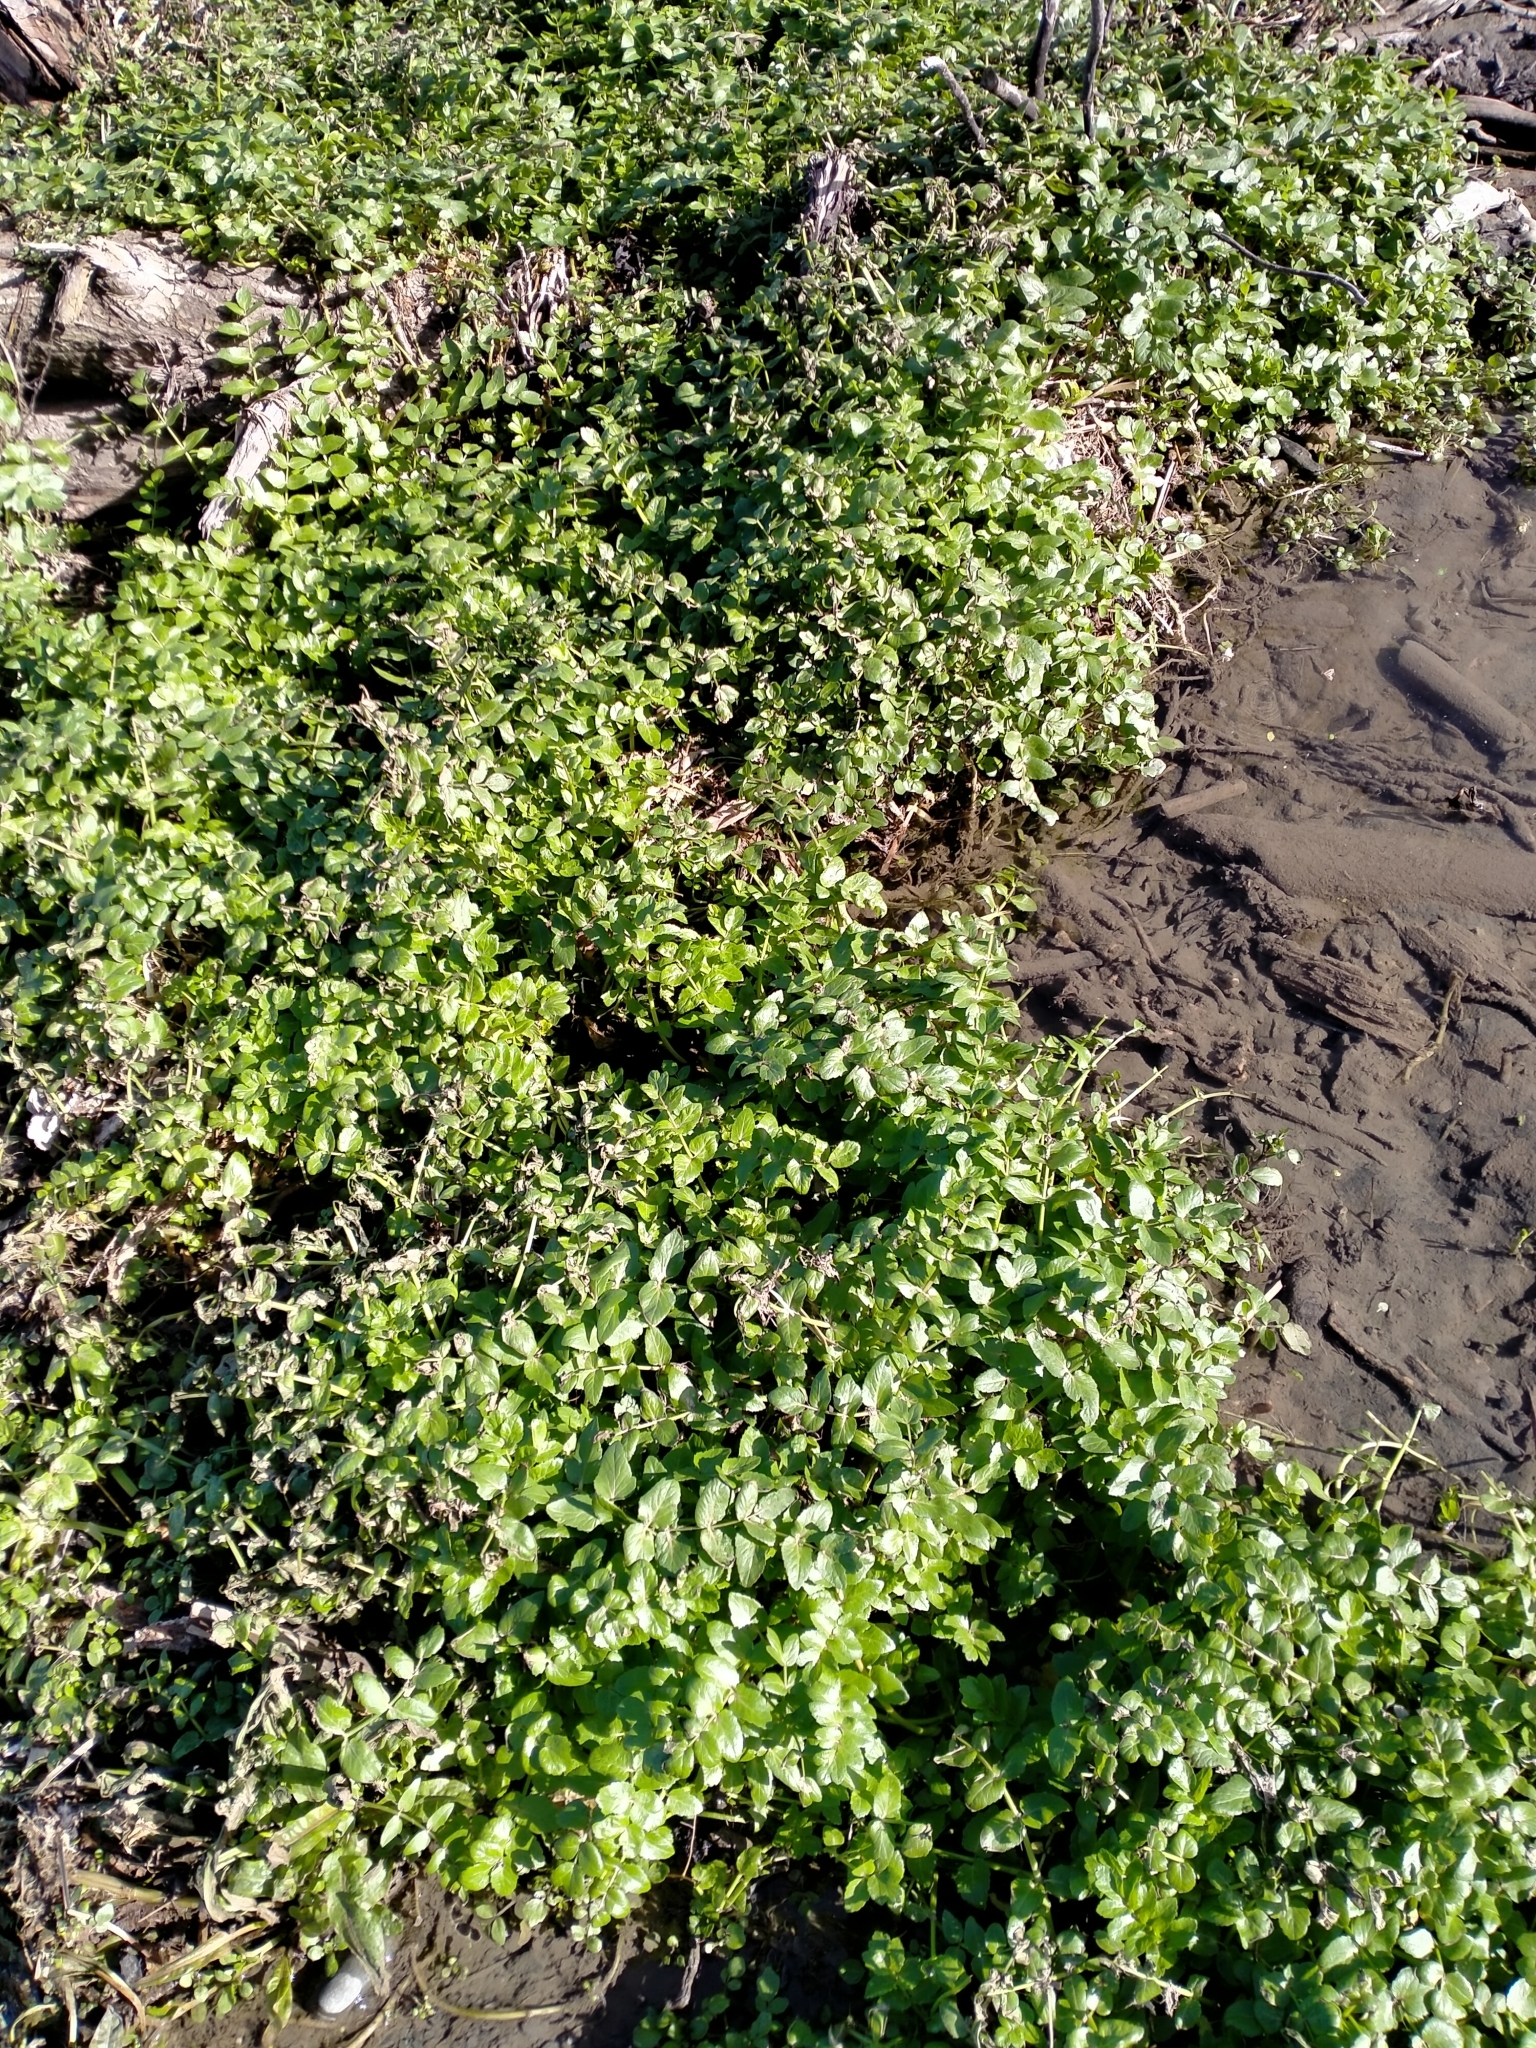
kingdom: Plantae
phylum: Tracheophyta
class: Magnoliopsida
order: Apiales
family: Apiaceae
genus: Helosciadium
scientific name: Helosciadium nodiflorum
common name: Fool's-watercress
